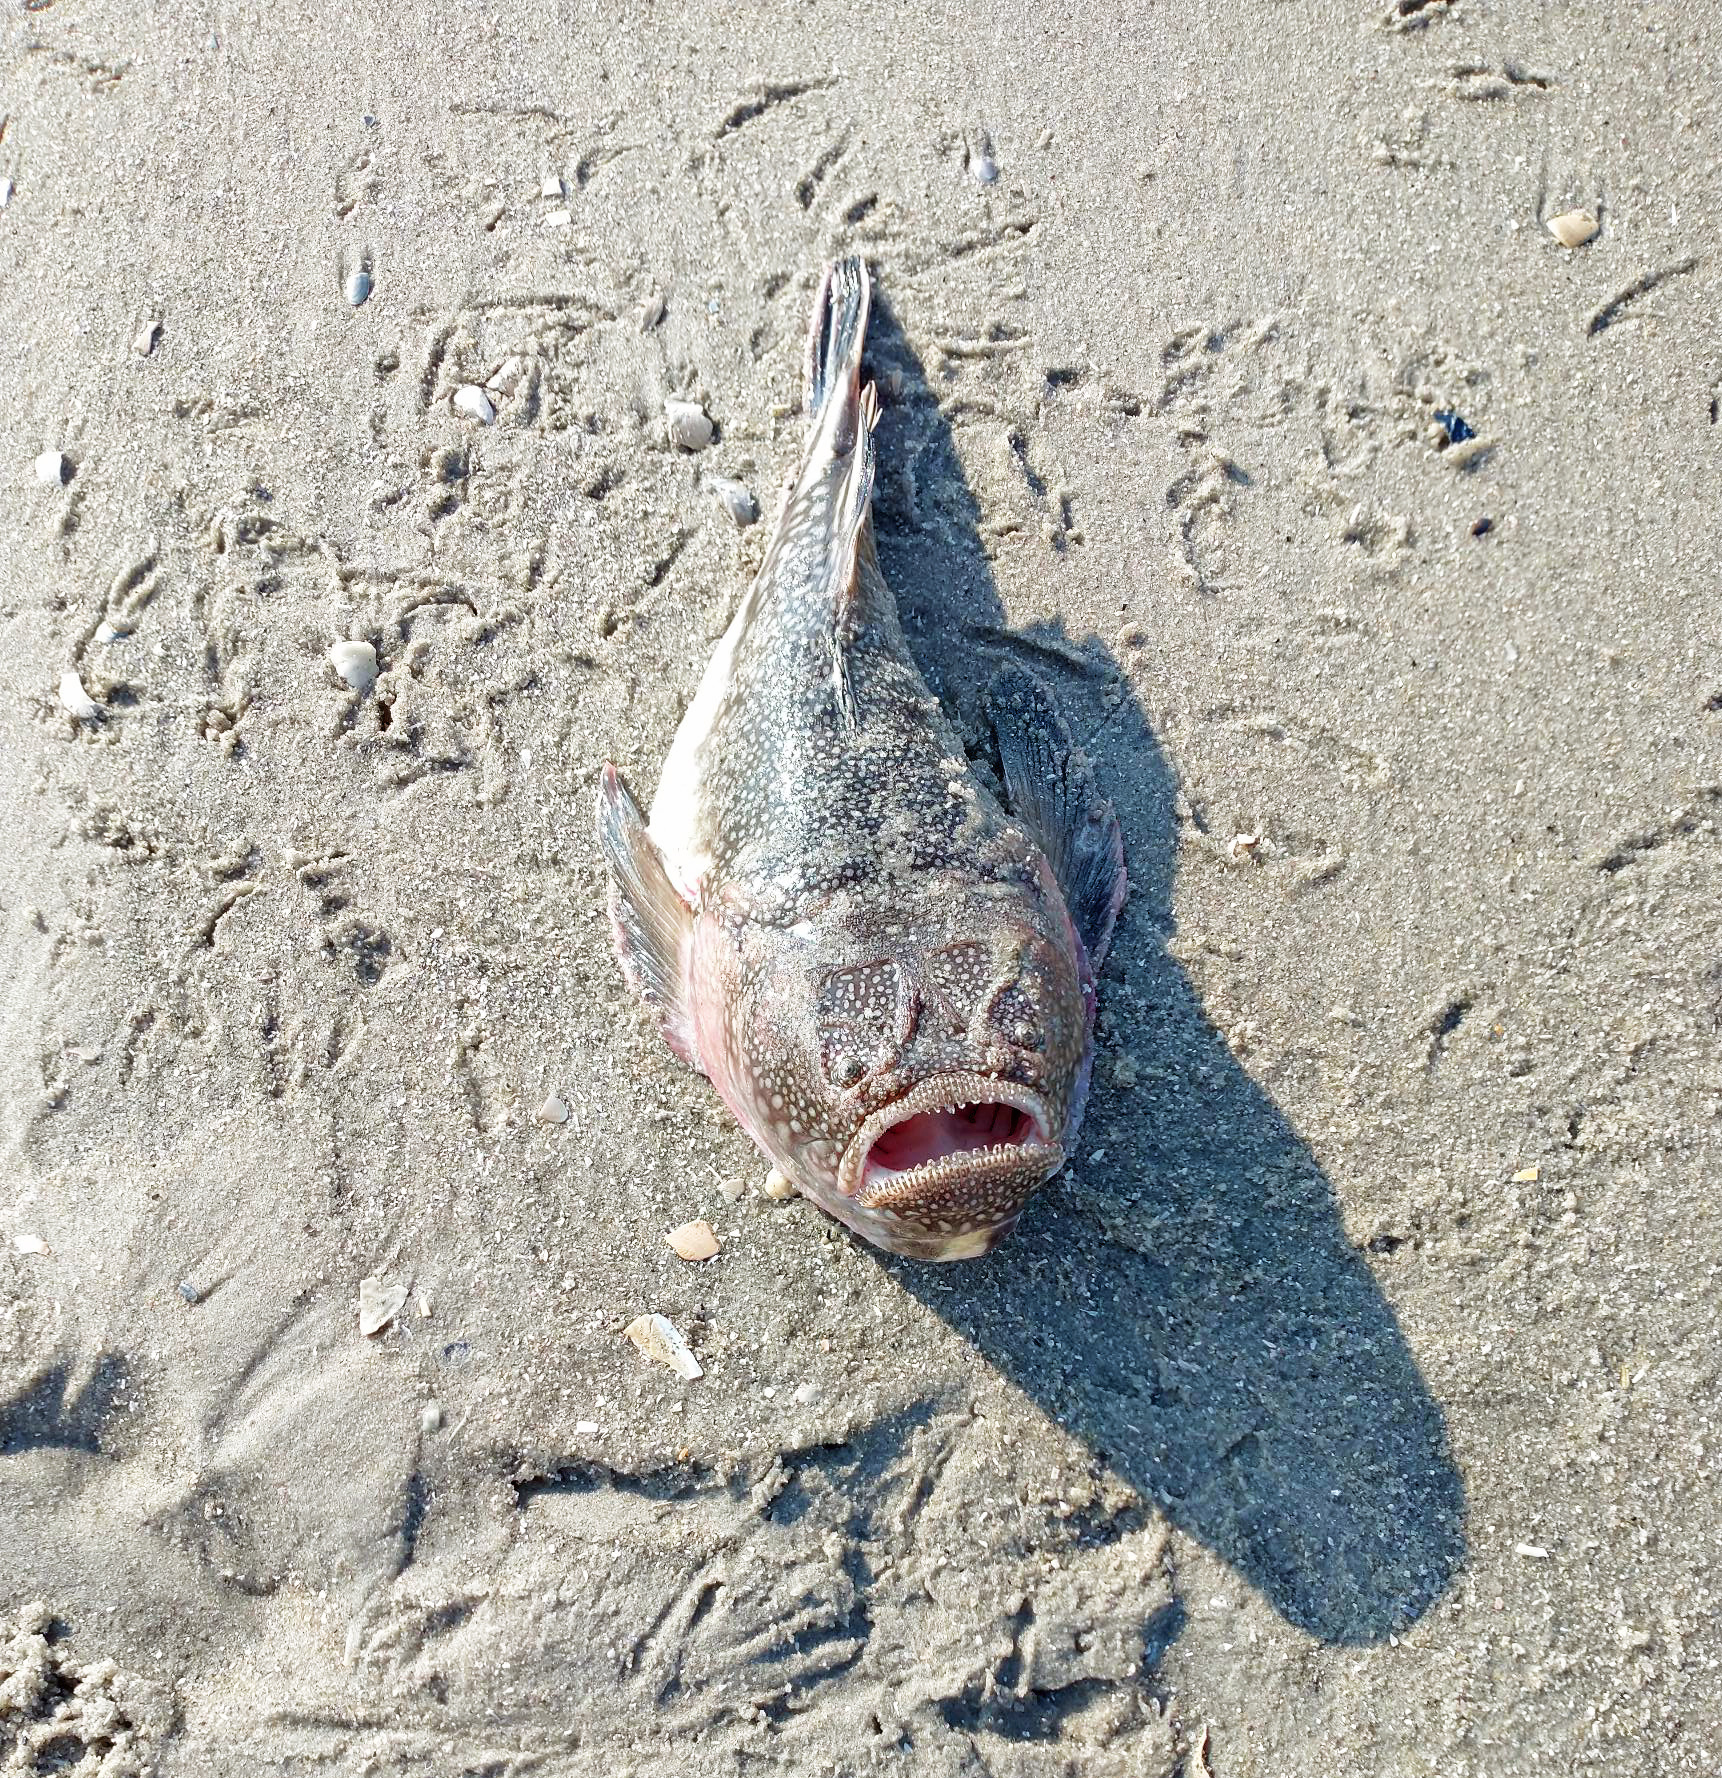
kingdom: Animalia
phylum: Chordata
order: Perciformes
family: Uranoscopidae
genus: Astroscopus
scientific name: Astroscopus guttatus
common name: Northern stargazer
